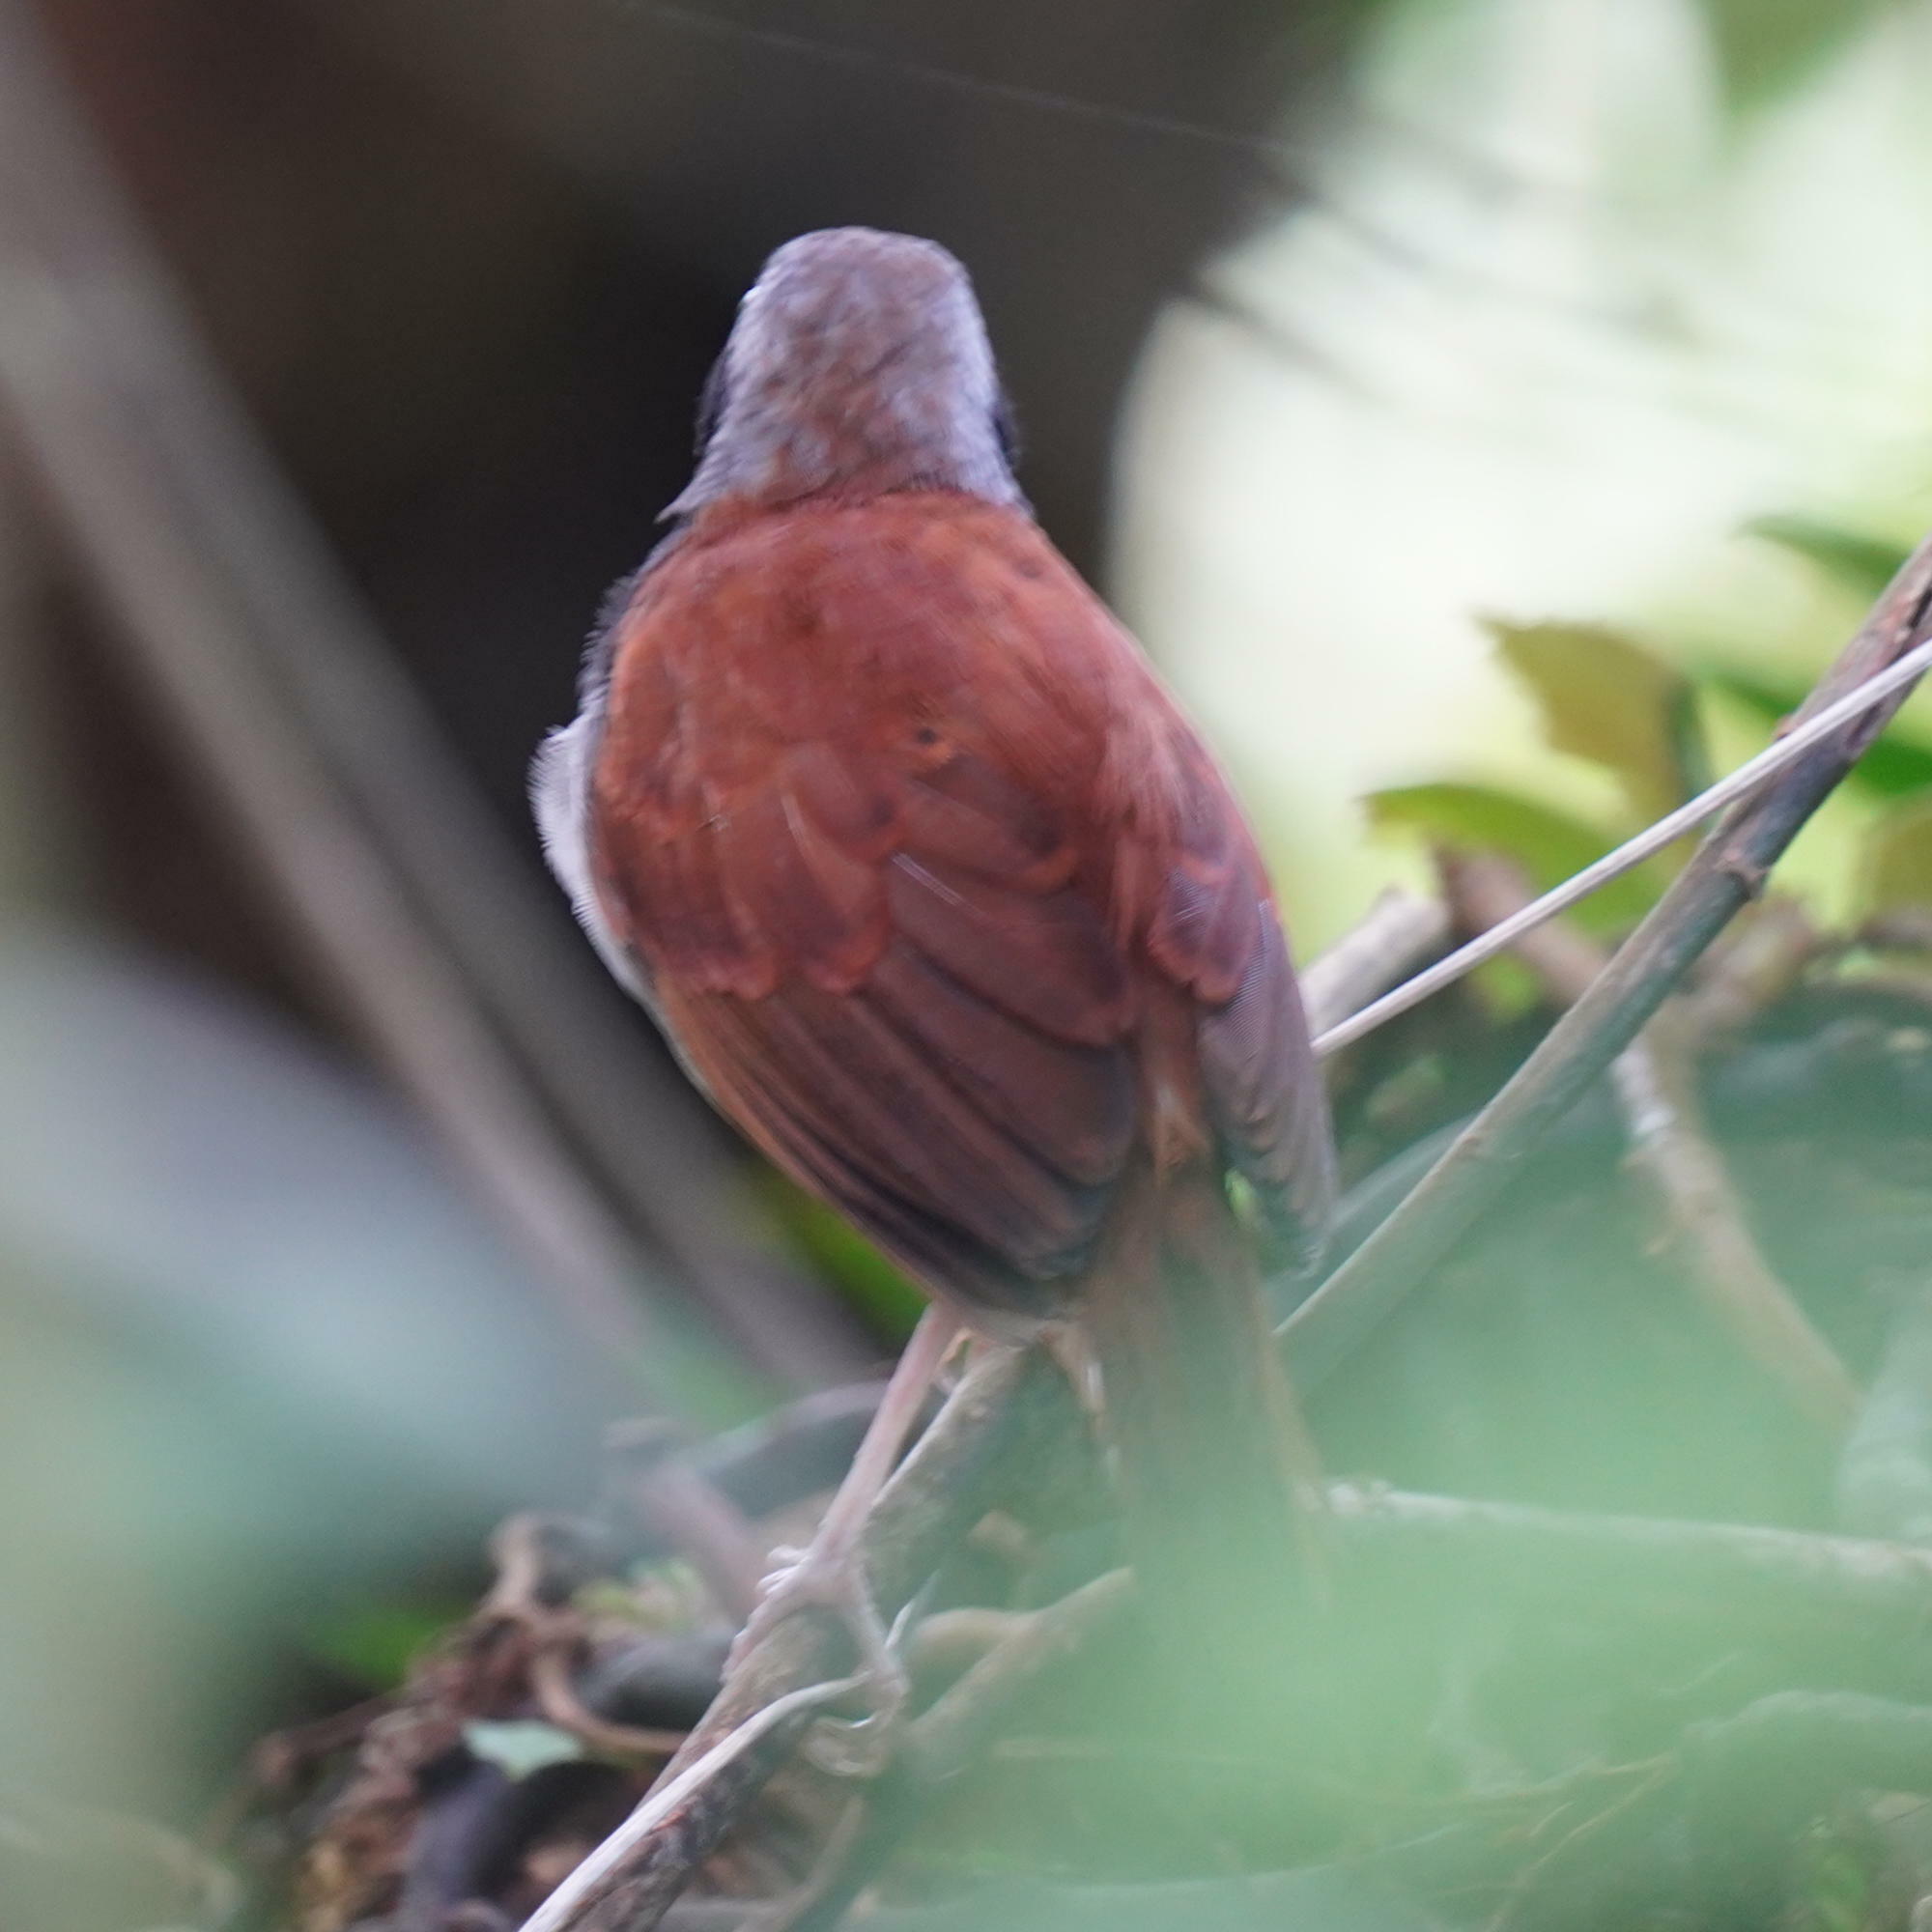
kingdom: Animalia
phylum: Chordata
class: Aves
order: Passeriformes
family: Thamnophilidae
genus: Myrmeciza
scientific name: Myrmeciza longipes
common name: White-bellied antbird
